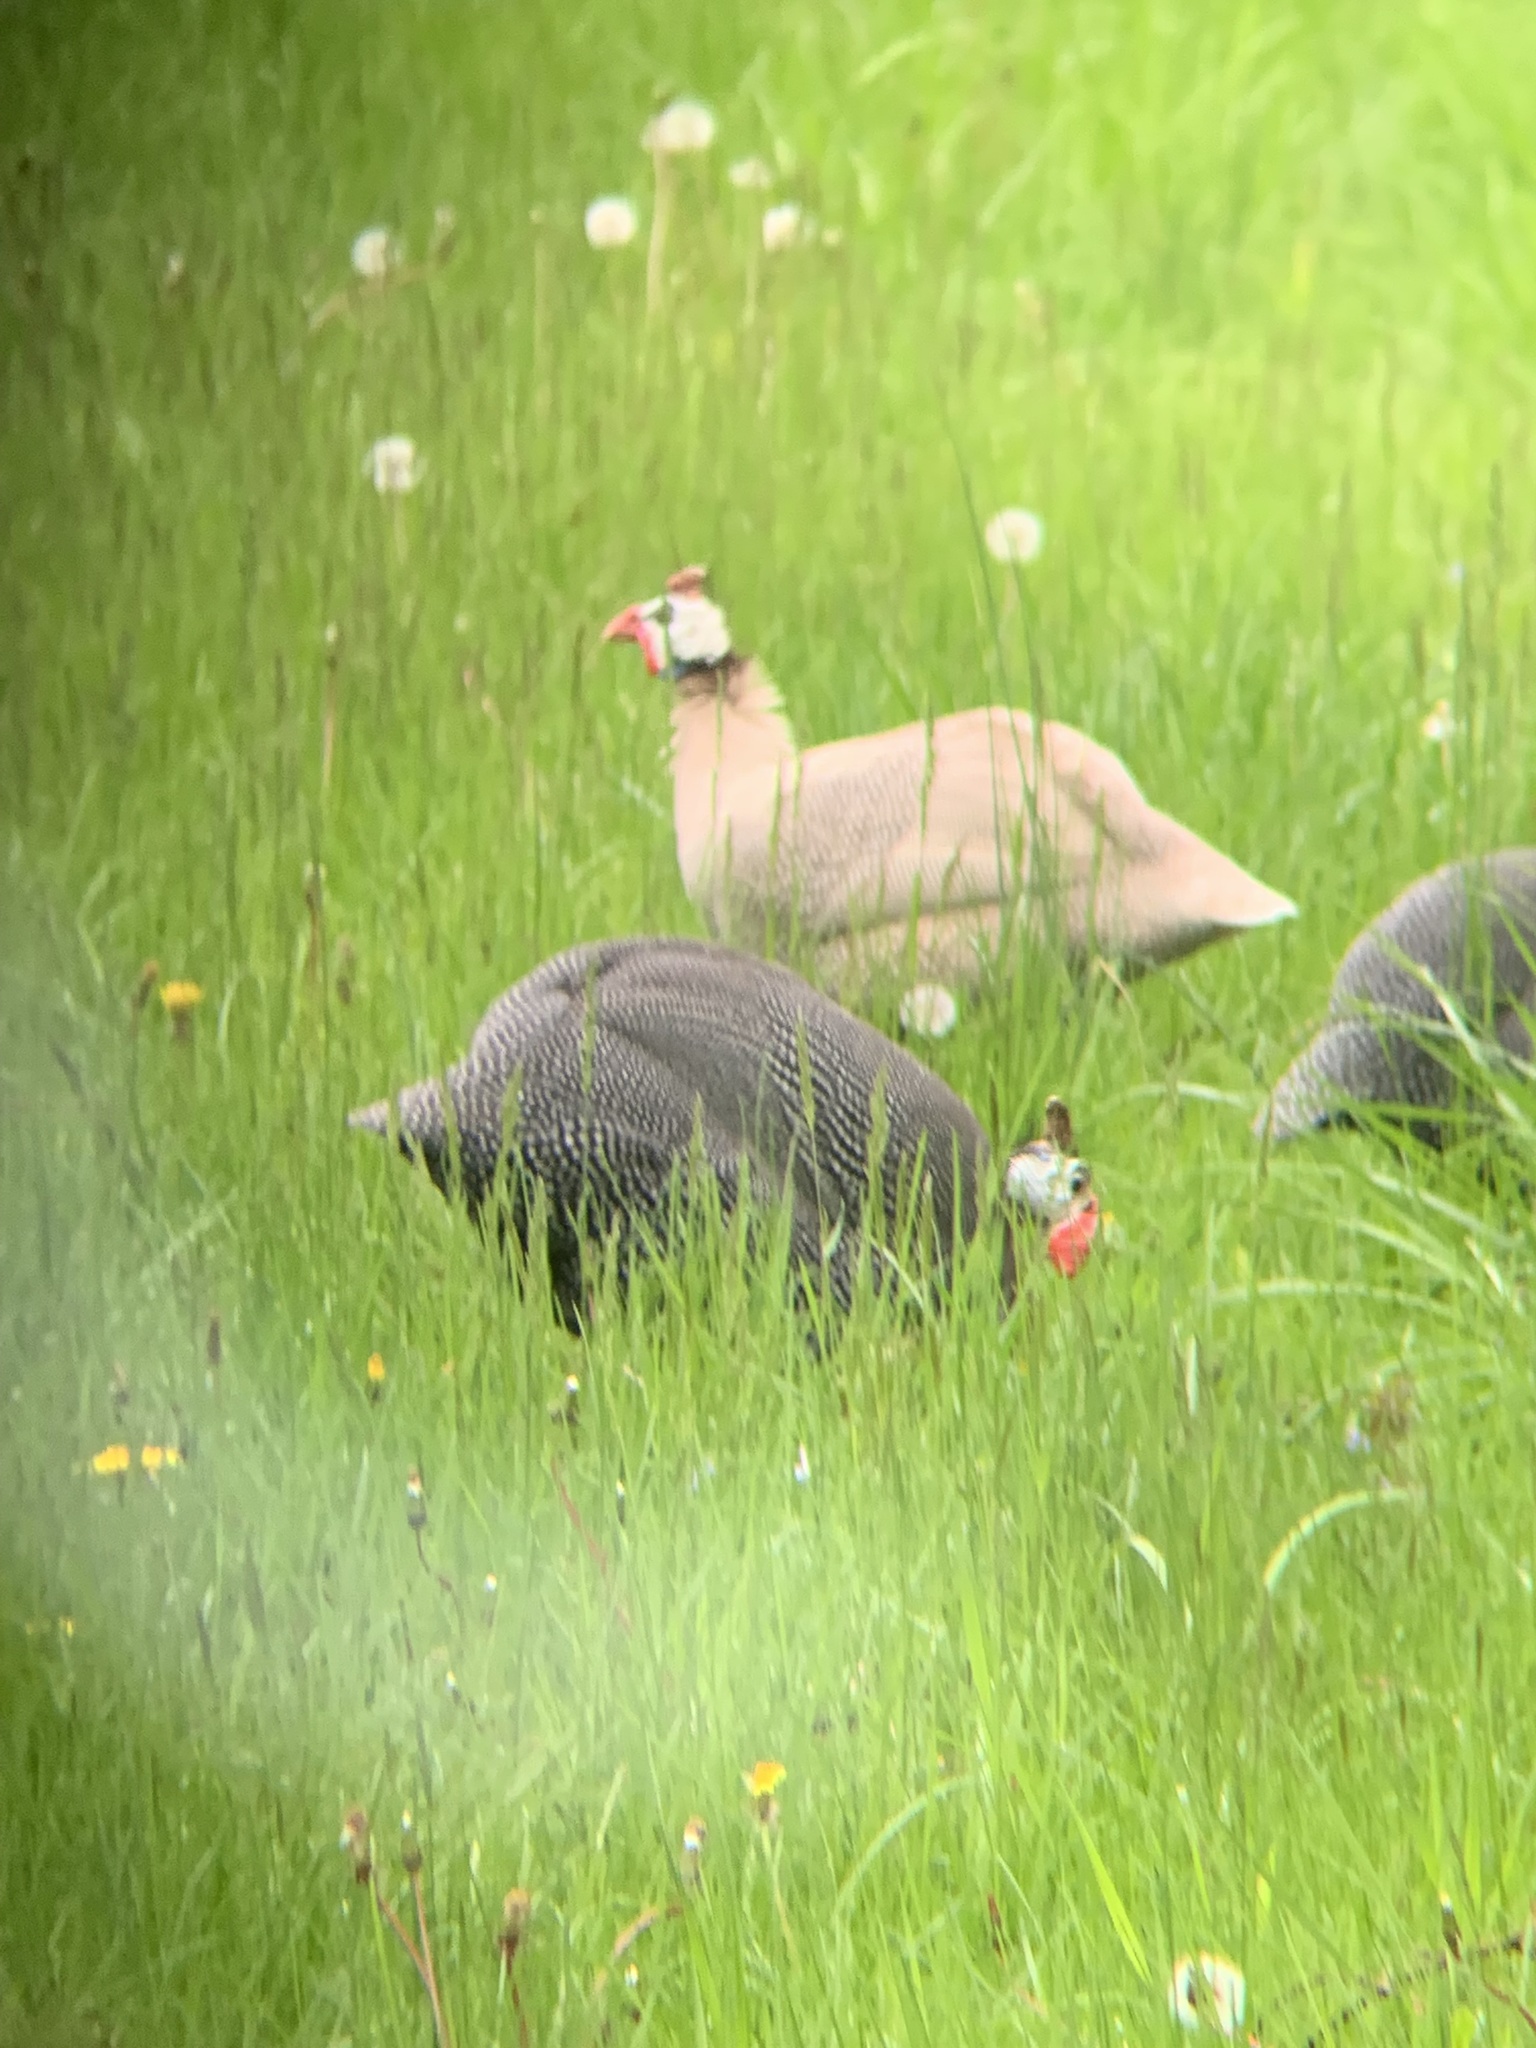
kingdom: Animalia
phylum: Chordata
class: Aves
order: Galliformes
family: Numididae
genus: Numida
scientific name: Numida meleagris
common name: Helmeted guineafowl
